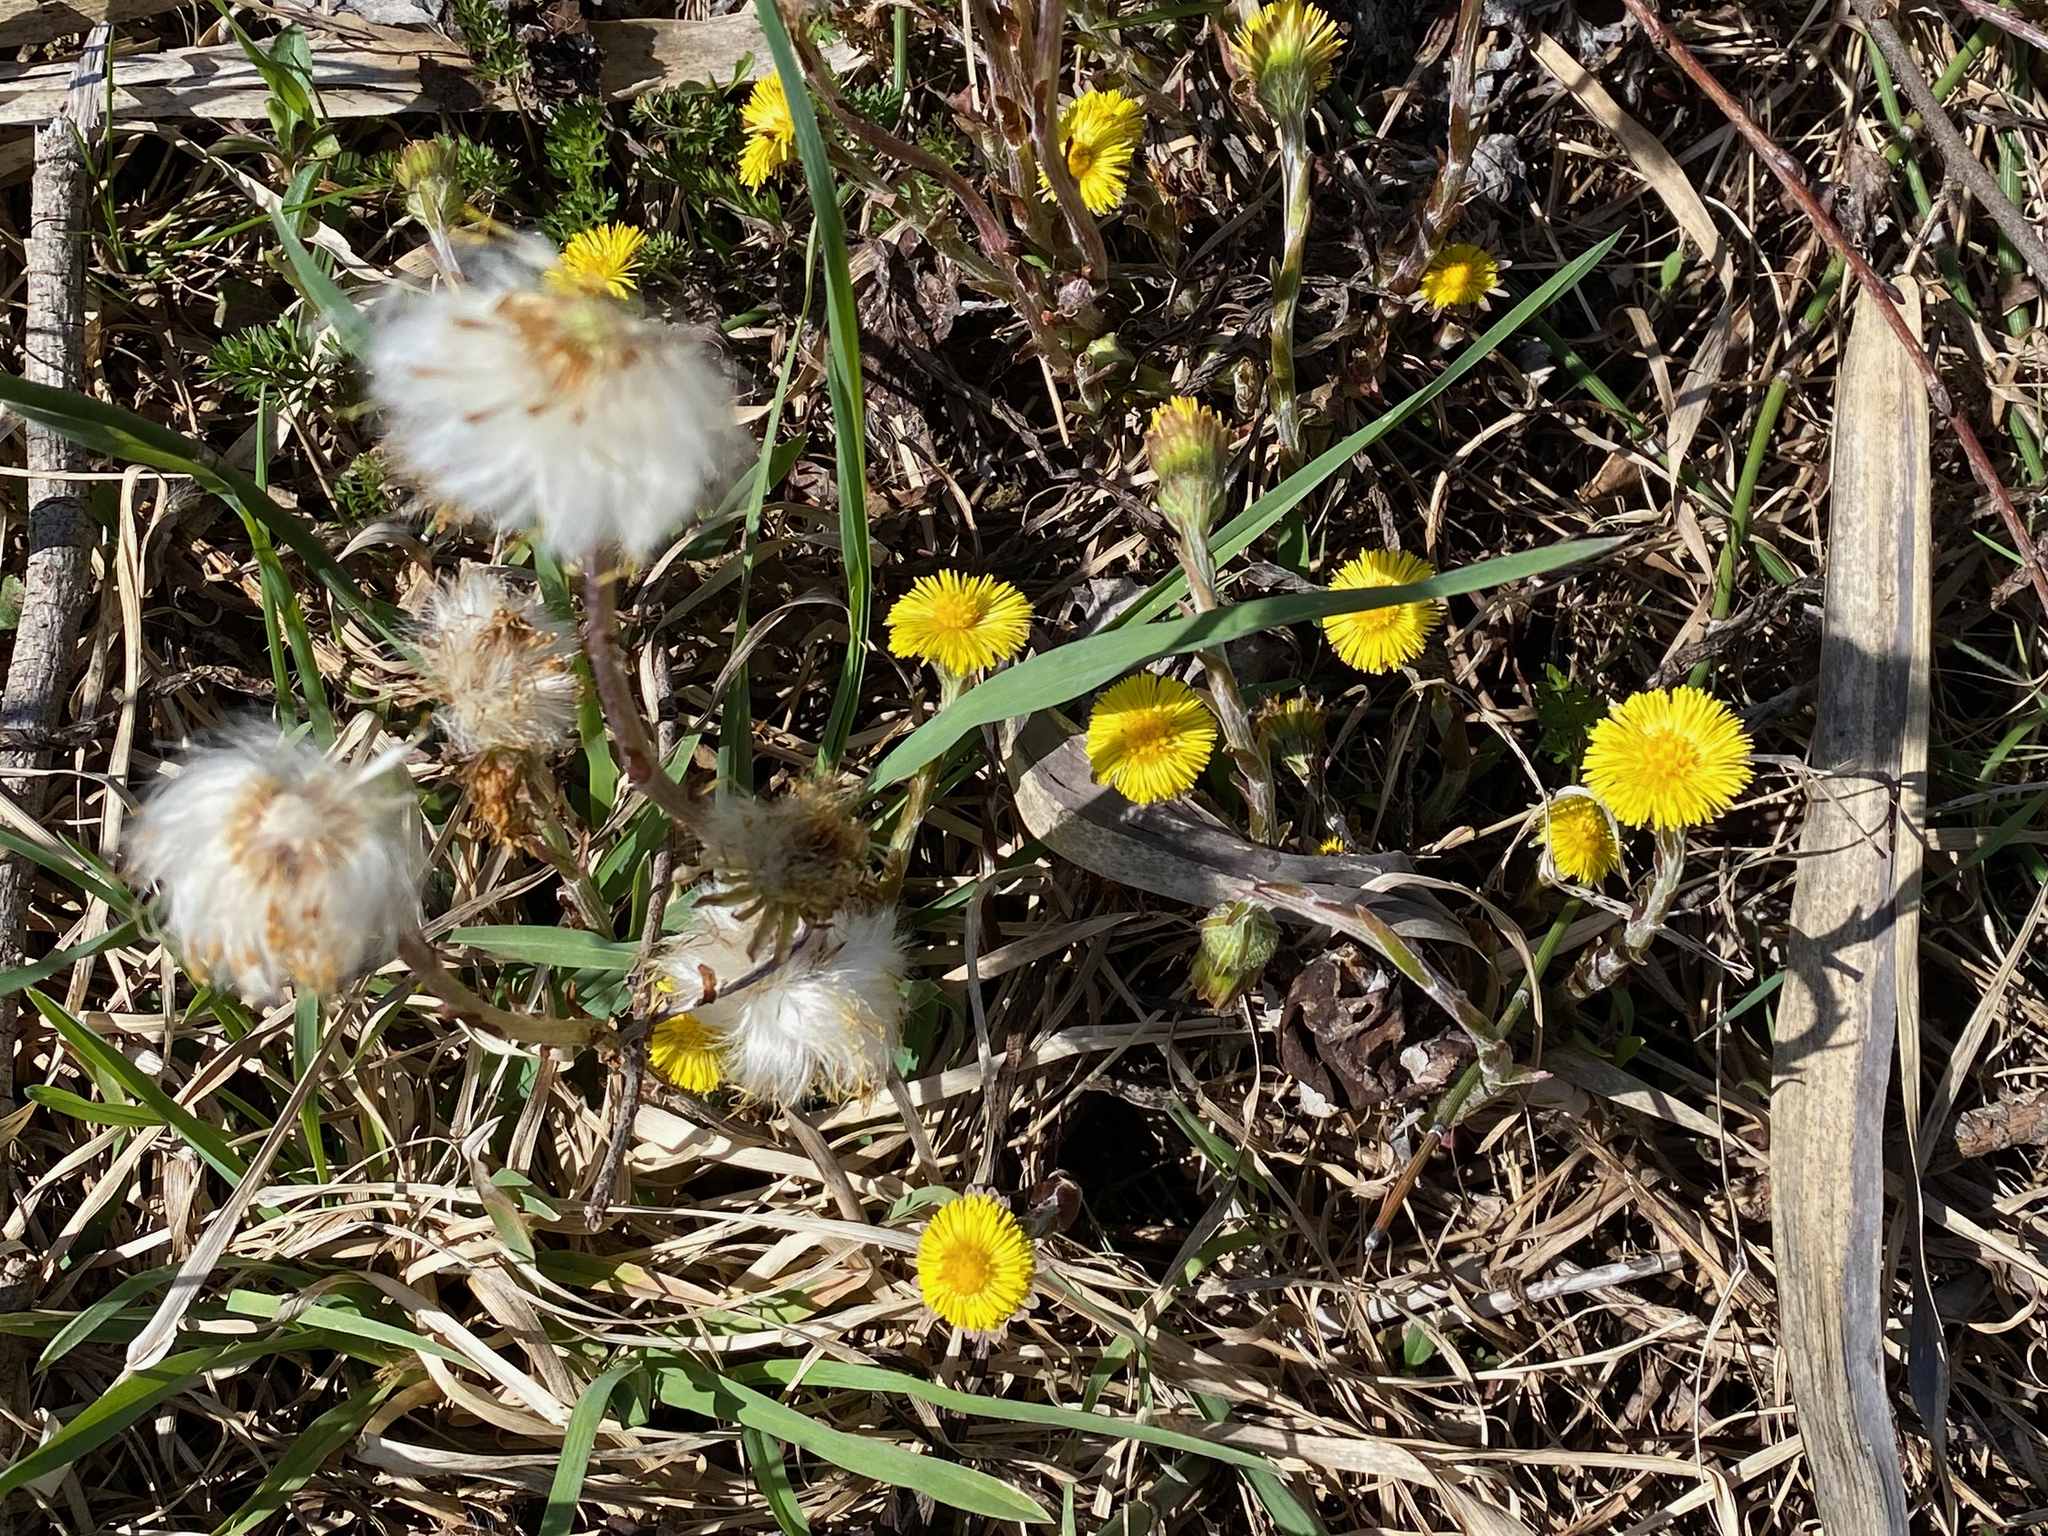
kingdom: Plantae
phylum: Tracheophyta
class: Magnoliopsida
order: Asterales
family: Asteraceae
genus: Tussilago
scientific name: Tussilago farfara
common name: Coltsfoot
